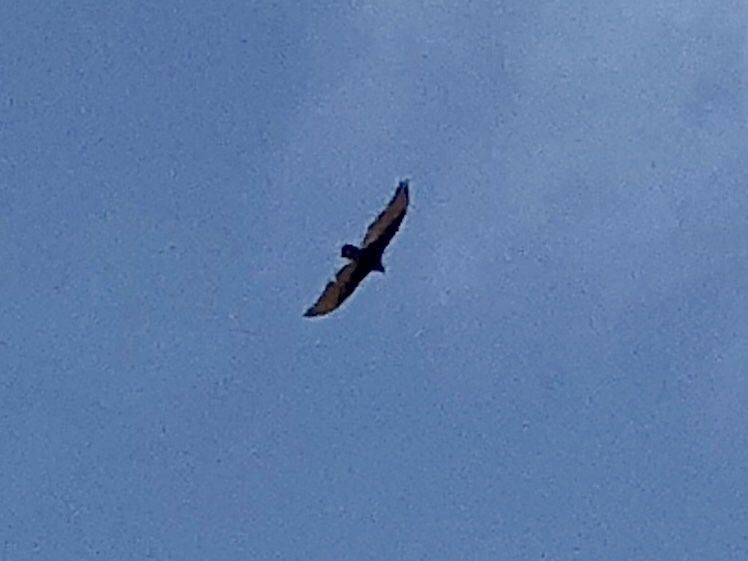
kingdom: Animalia
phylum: Chordata
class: Aves
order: Accipitriformes
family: Cathartidae
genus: Cathartes
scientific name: Cathartes aura
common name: Turkey vulture
